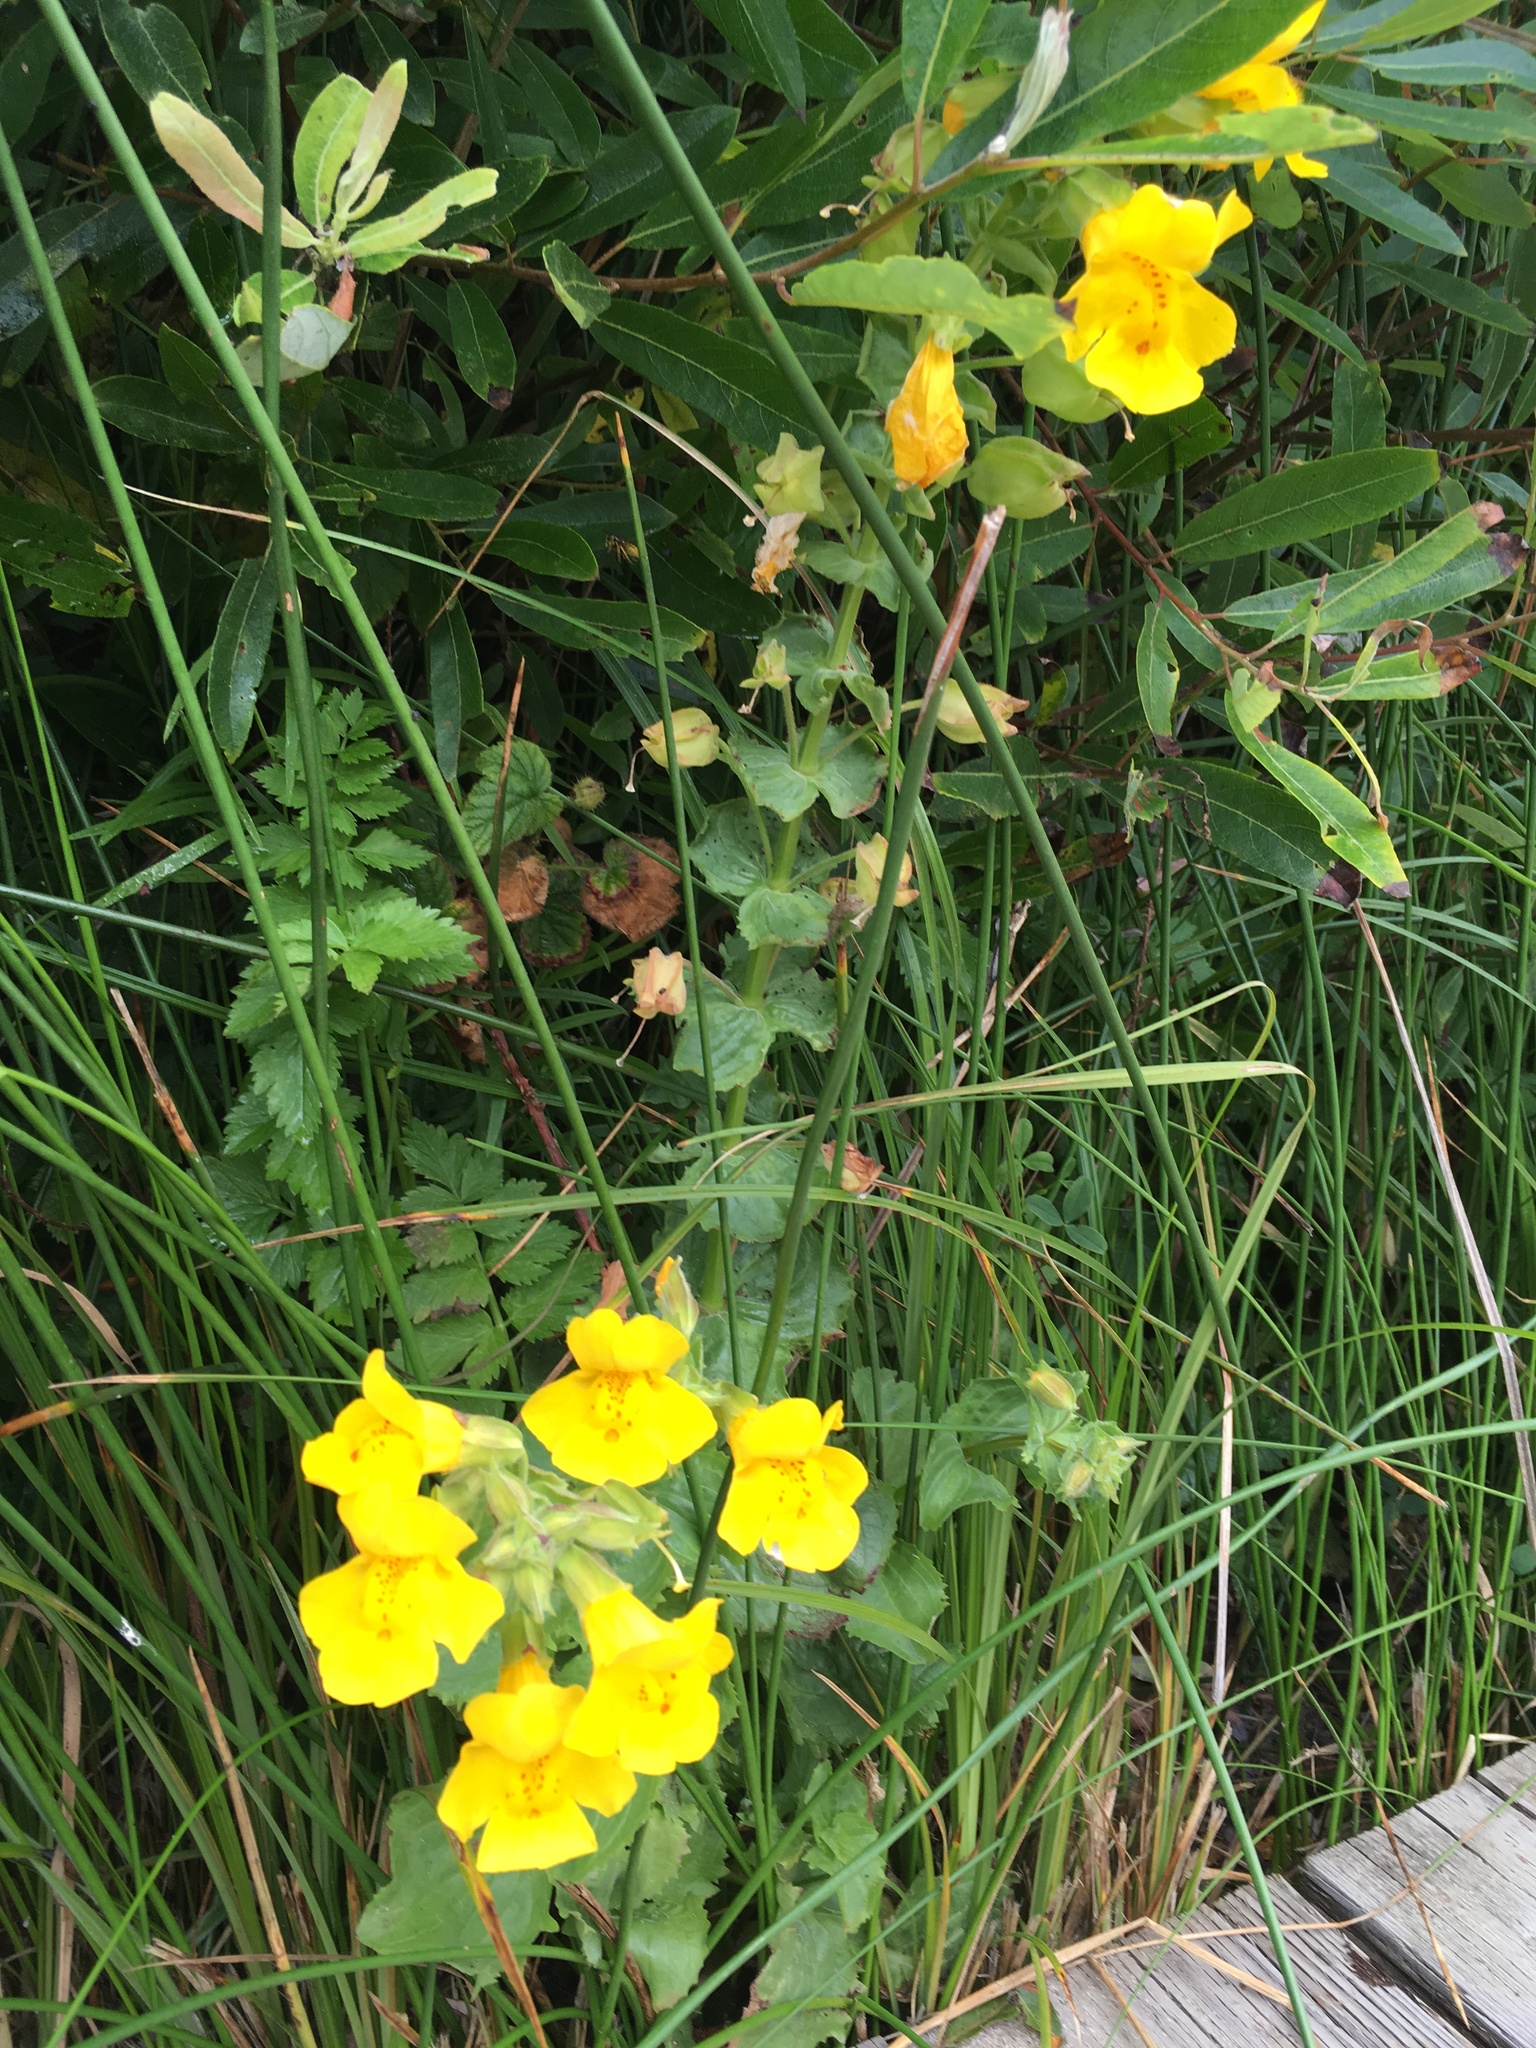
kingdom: Plantae
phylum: Tracheophyta
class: Magnoliopsida
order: Lamiales
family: Phrymaceae
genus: Erythranthe
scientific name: Erythranthe guttata
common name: Monkeyflower
